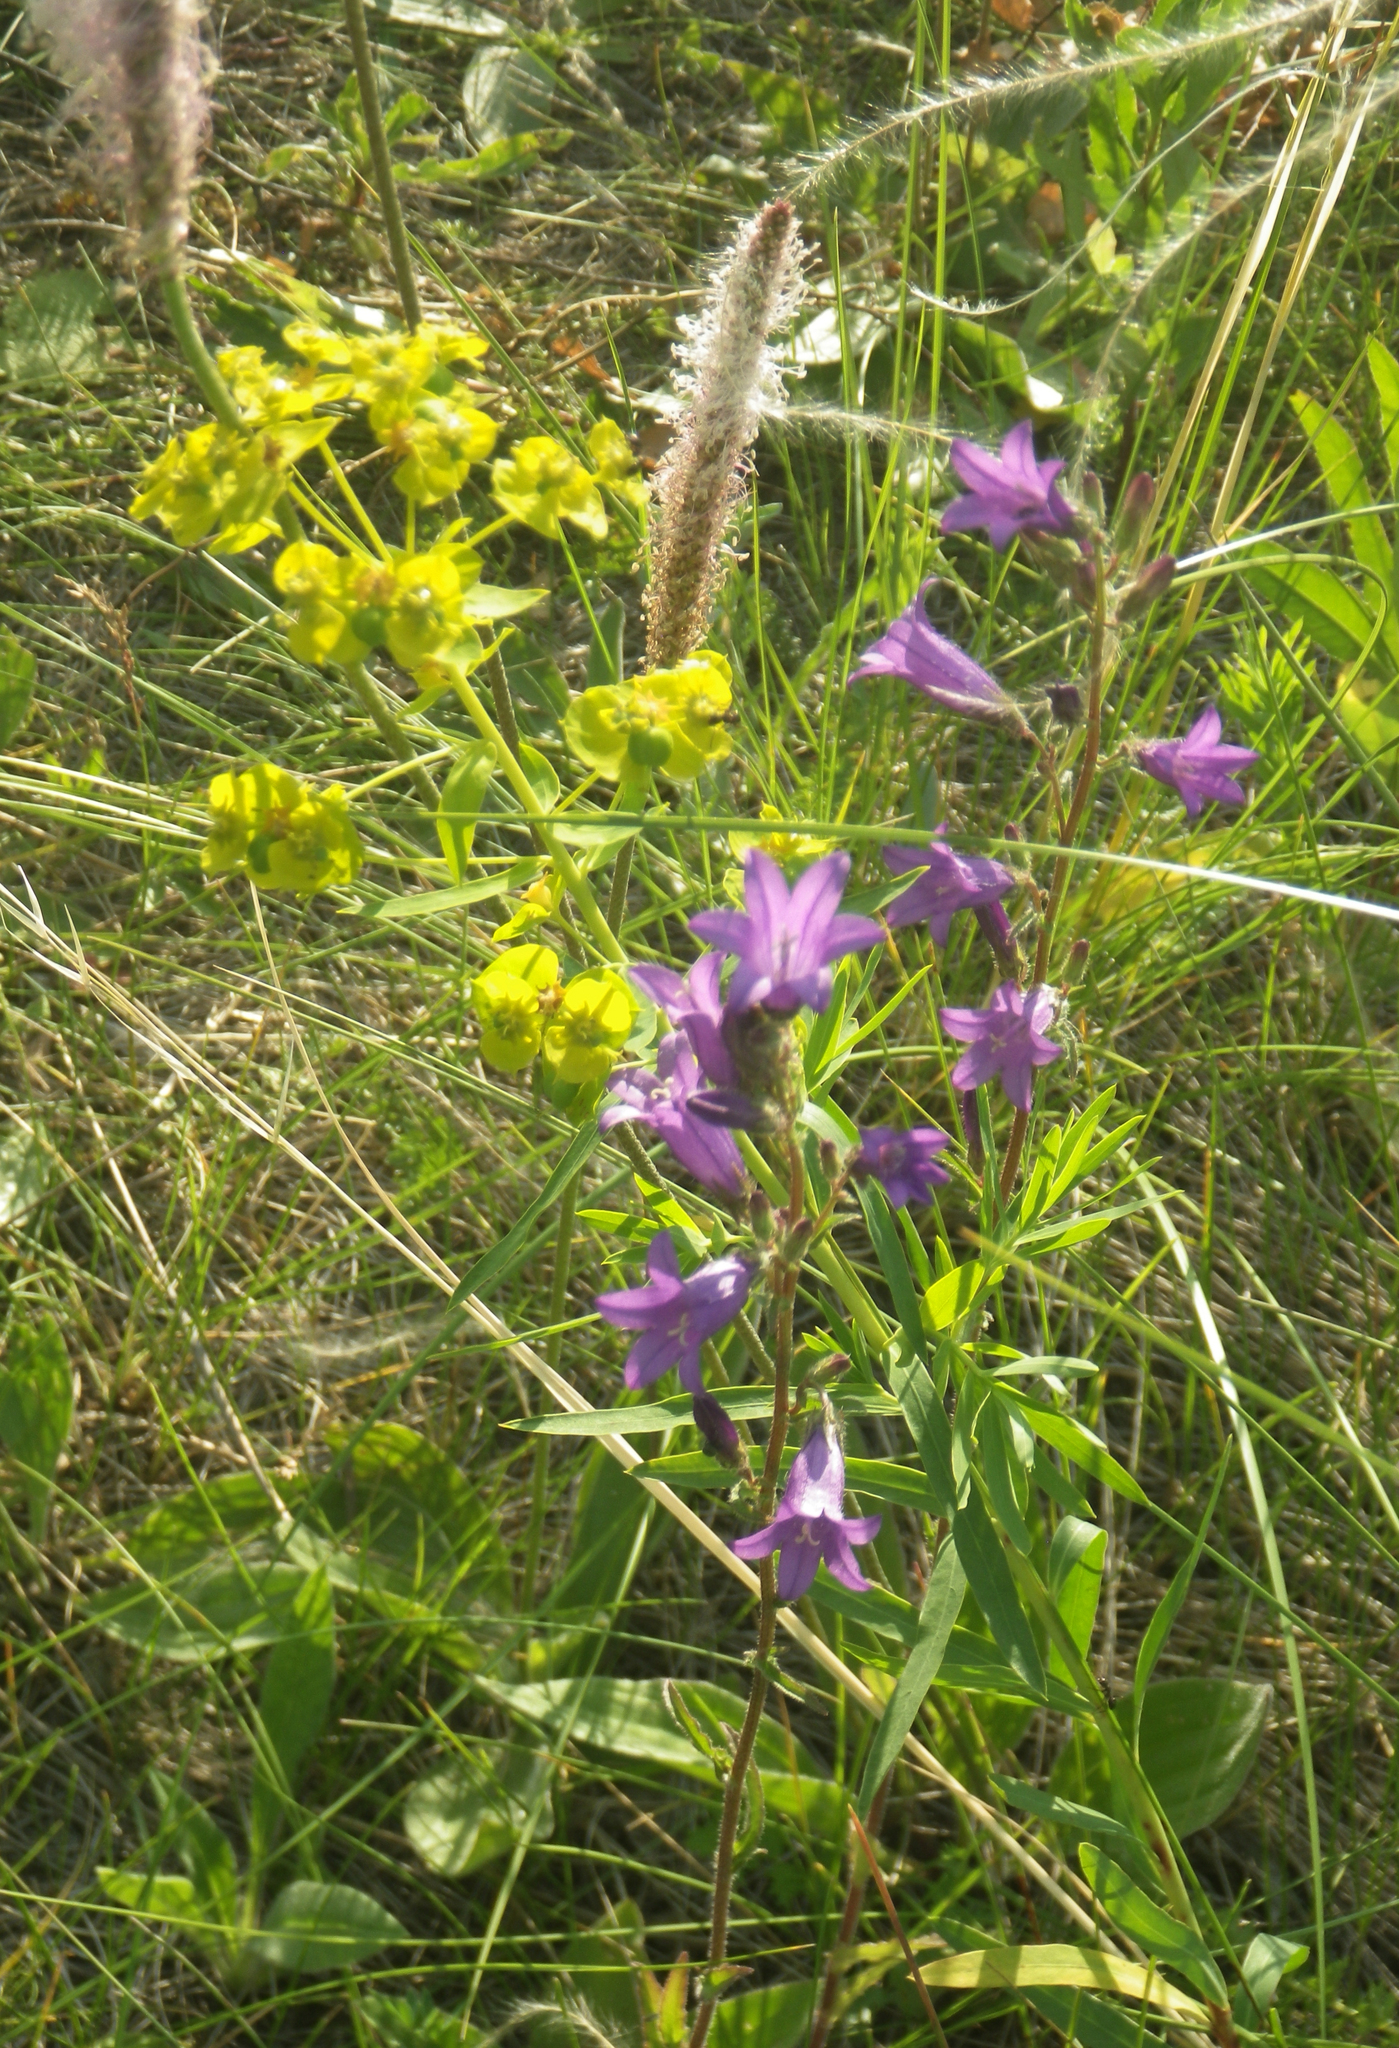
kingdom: Plantae
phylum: Tracheophyta
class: Magnoliopsida
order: Asterales
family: Campanulaceae
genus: Campanula
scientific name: Campanula sibirica
